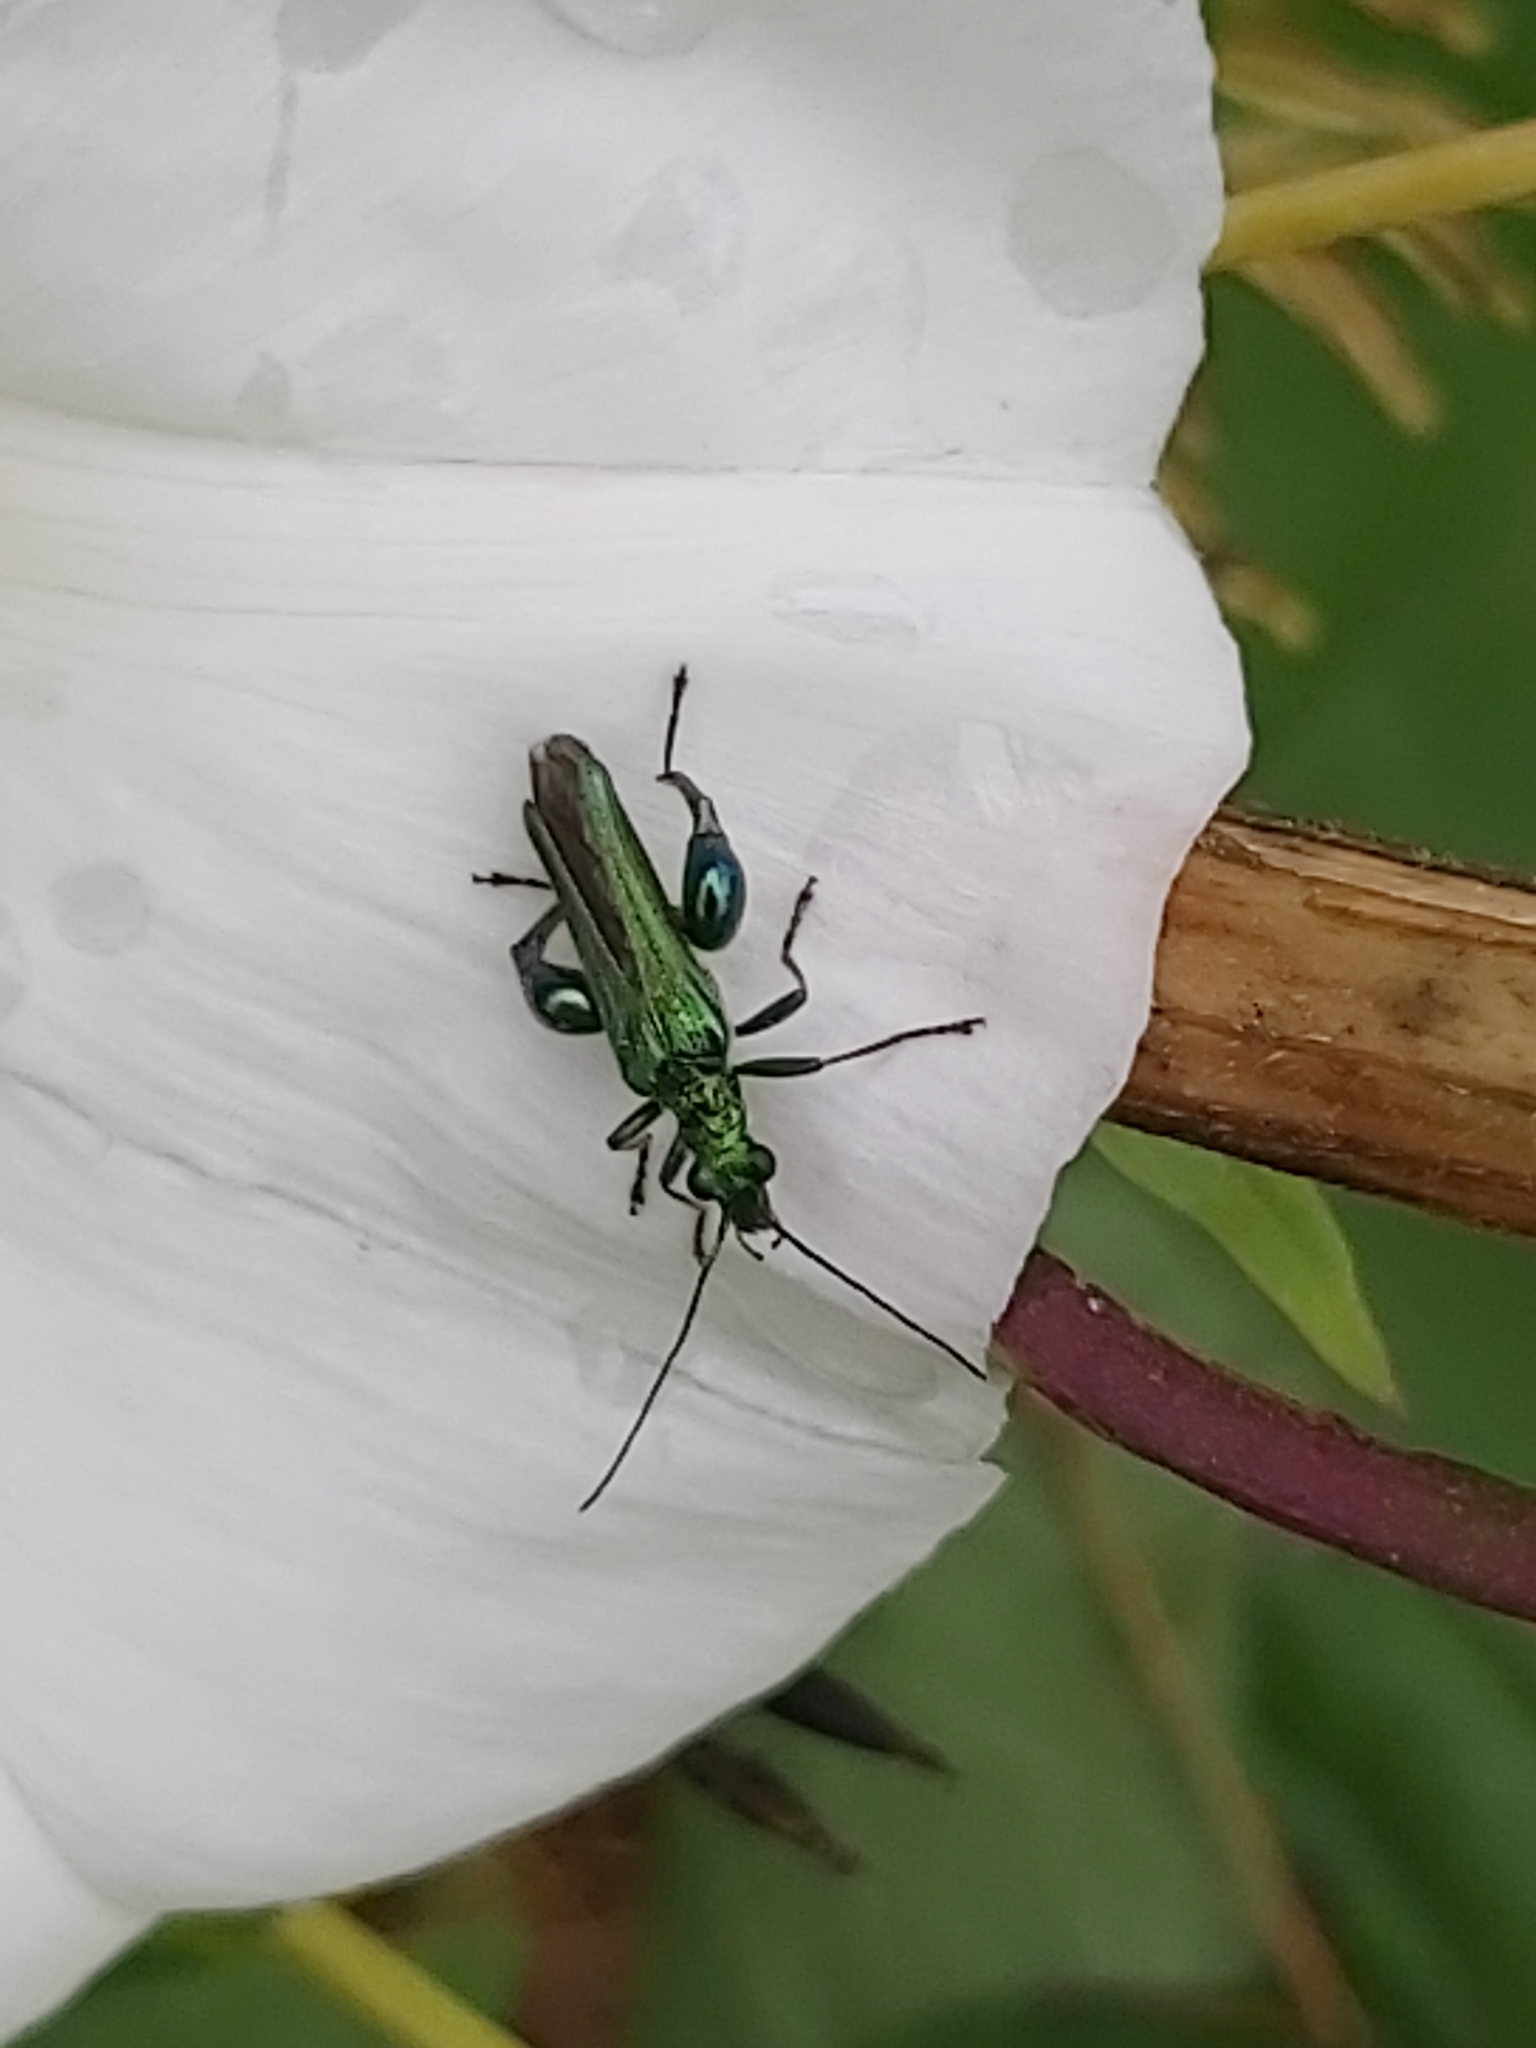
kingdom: Animalia
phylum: Arthropoda
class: Insecta
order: Coleoptera
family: Oedemeridae
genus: Oedemera
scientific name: Oedemera nobilis
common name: Swollen-thighed beetle
